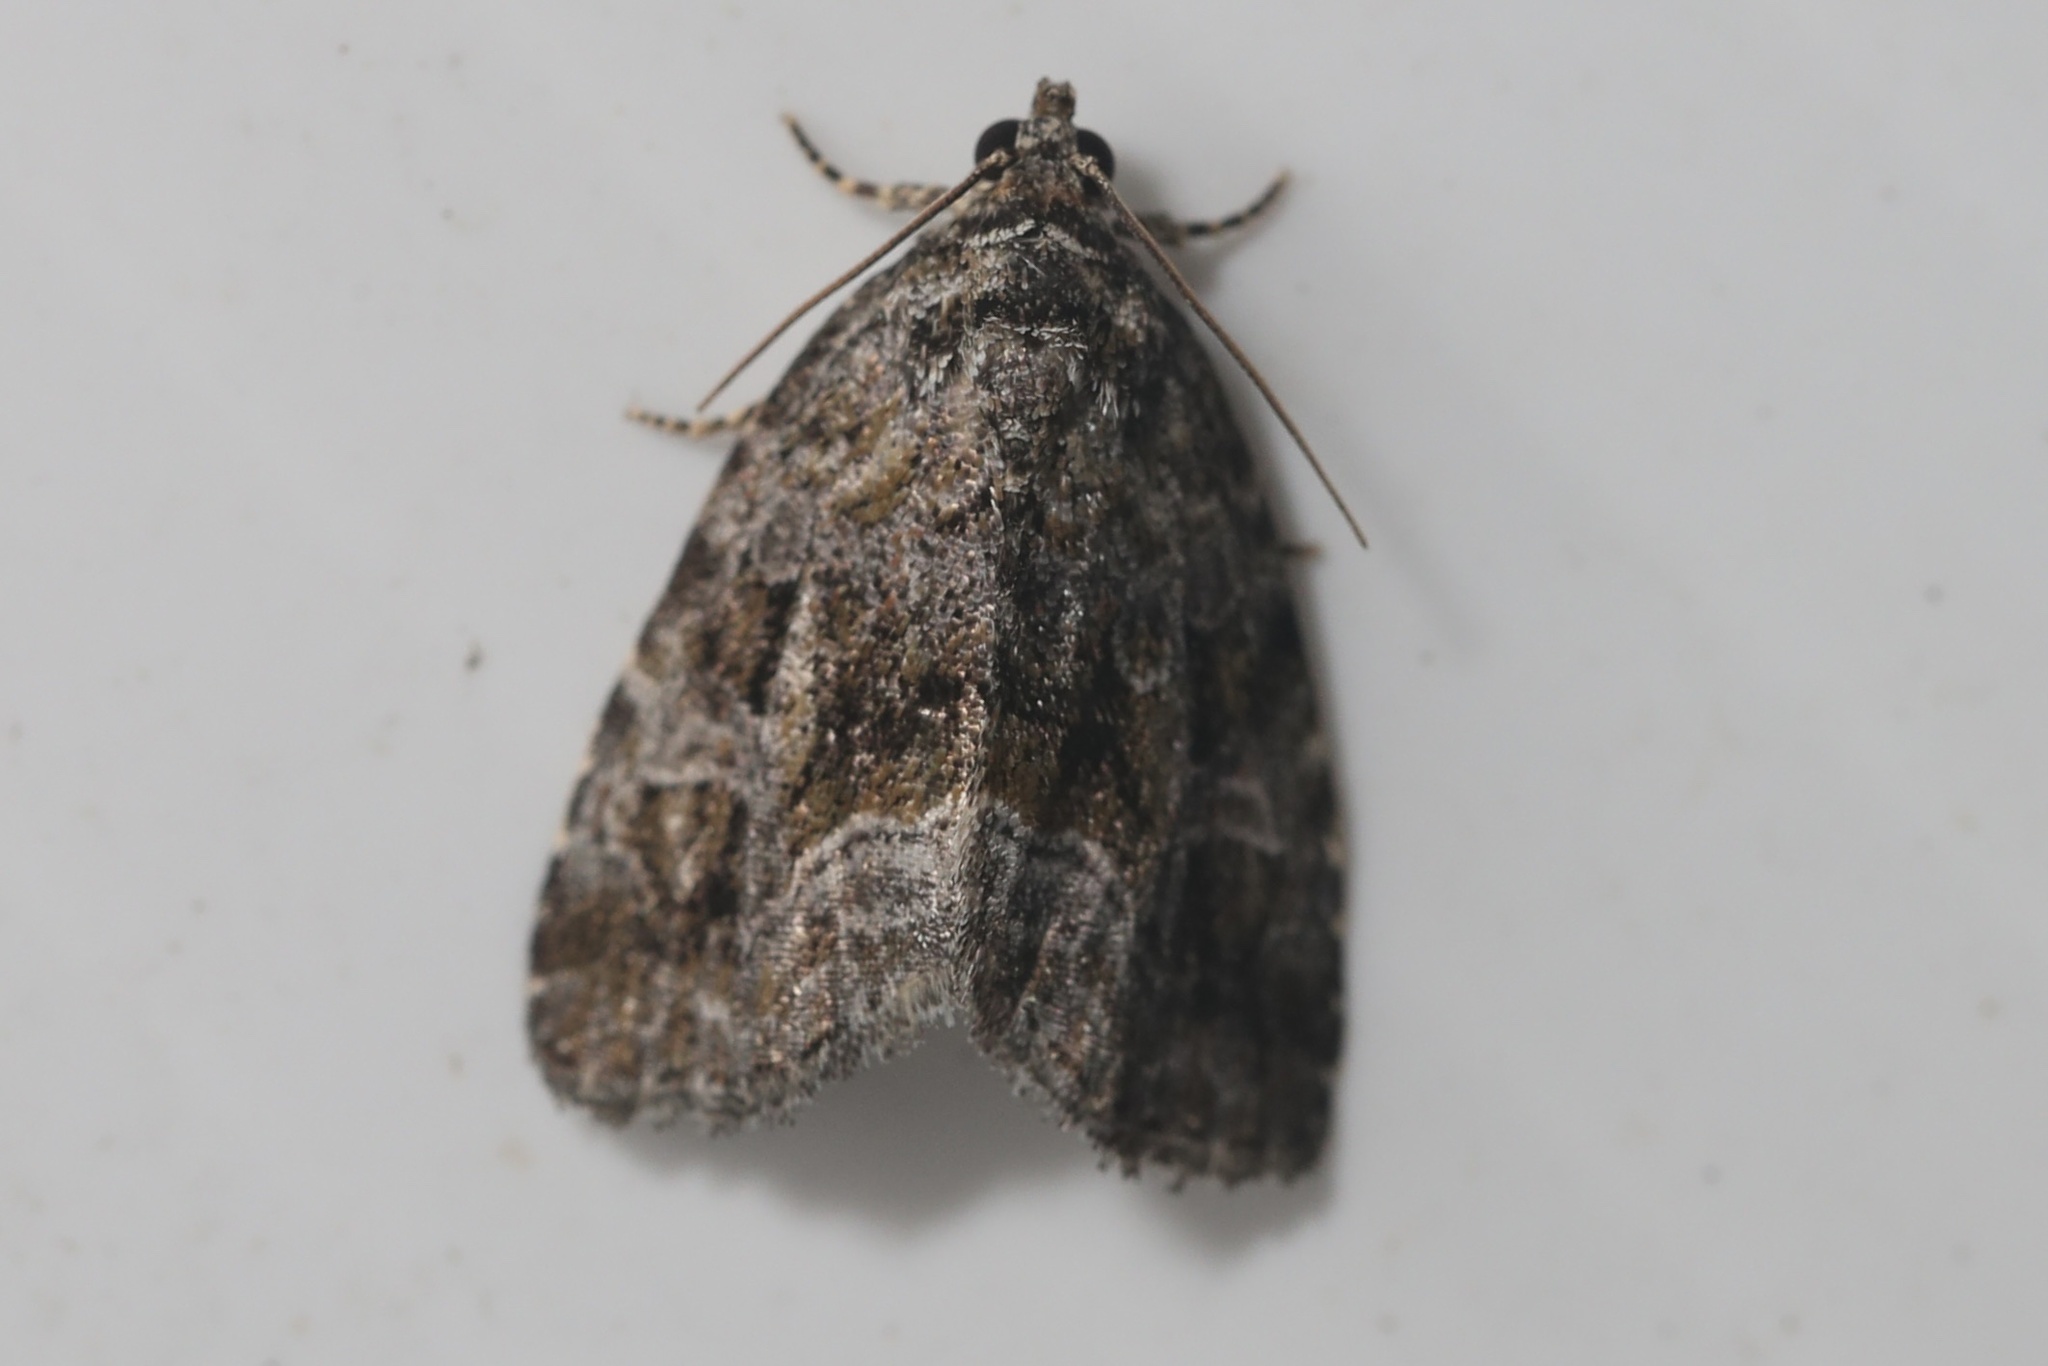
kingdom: Animalia
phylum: Arthropoda
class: Insecta
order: Lepidoptera
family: Noctuidae
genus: Protodeltote
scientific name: Protodeltote muscosula
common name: Large mossy glyph
